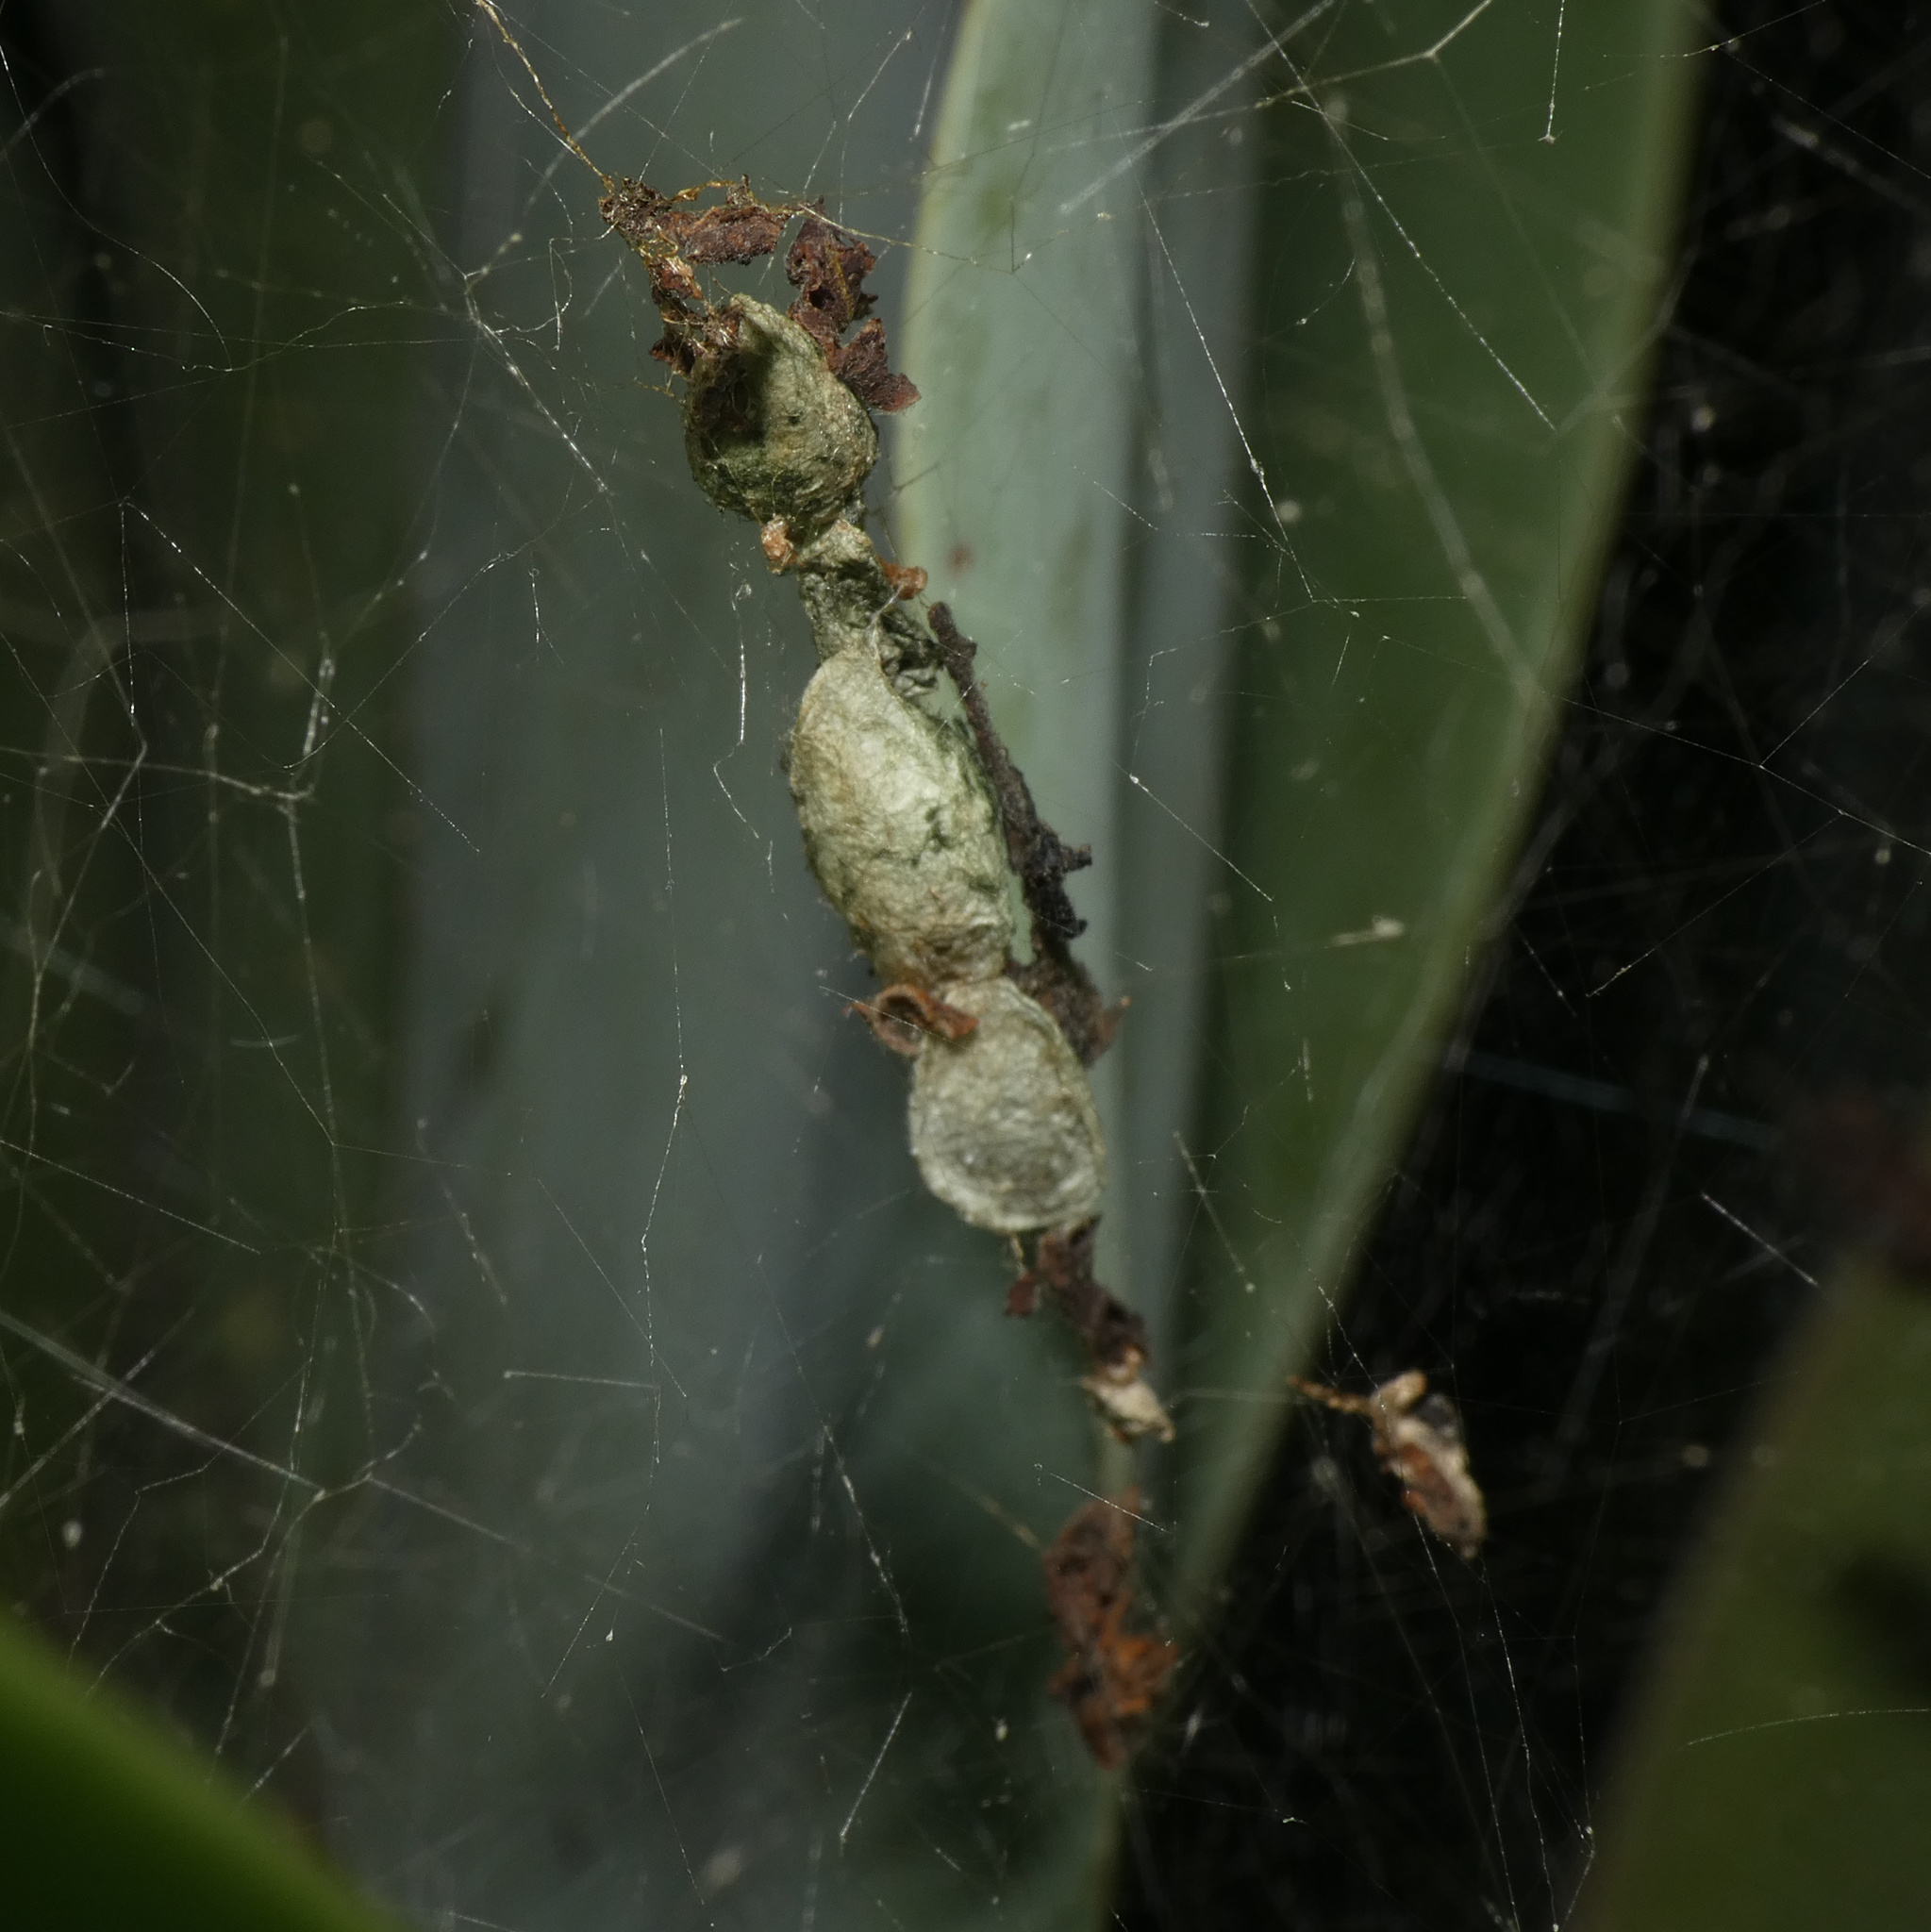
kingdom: Animalia
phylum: Arthropoda
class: Arachnida
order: Araneae
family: Araneidae
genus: Cyrtophora
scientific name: Cyrtophora citricola
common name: Orb weavers
